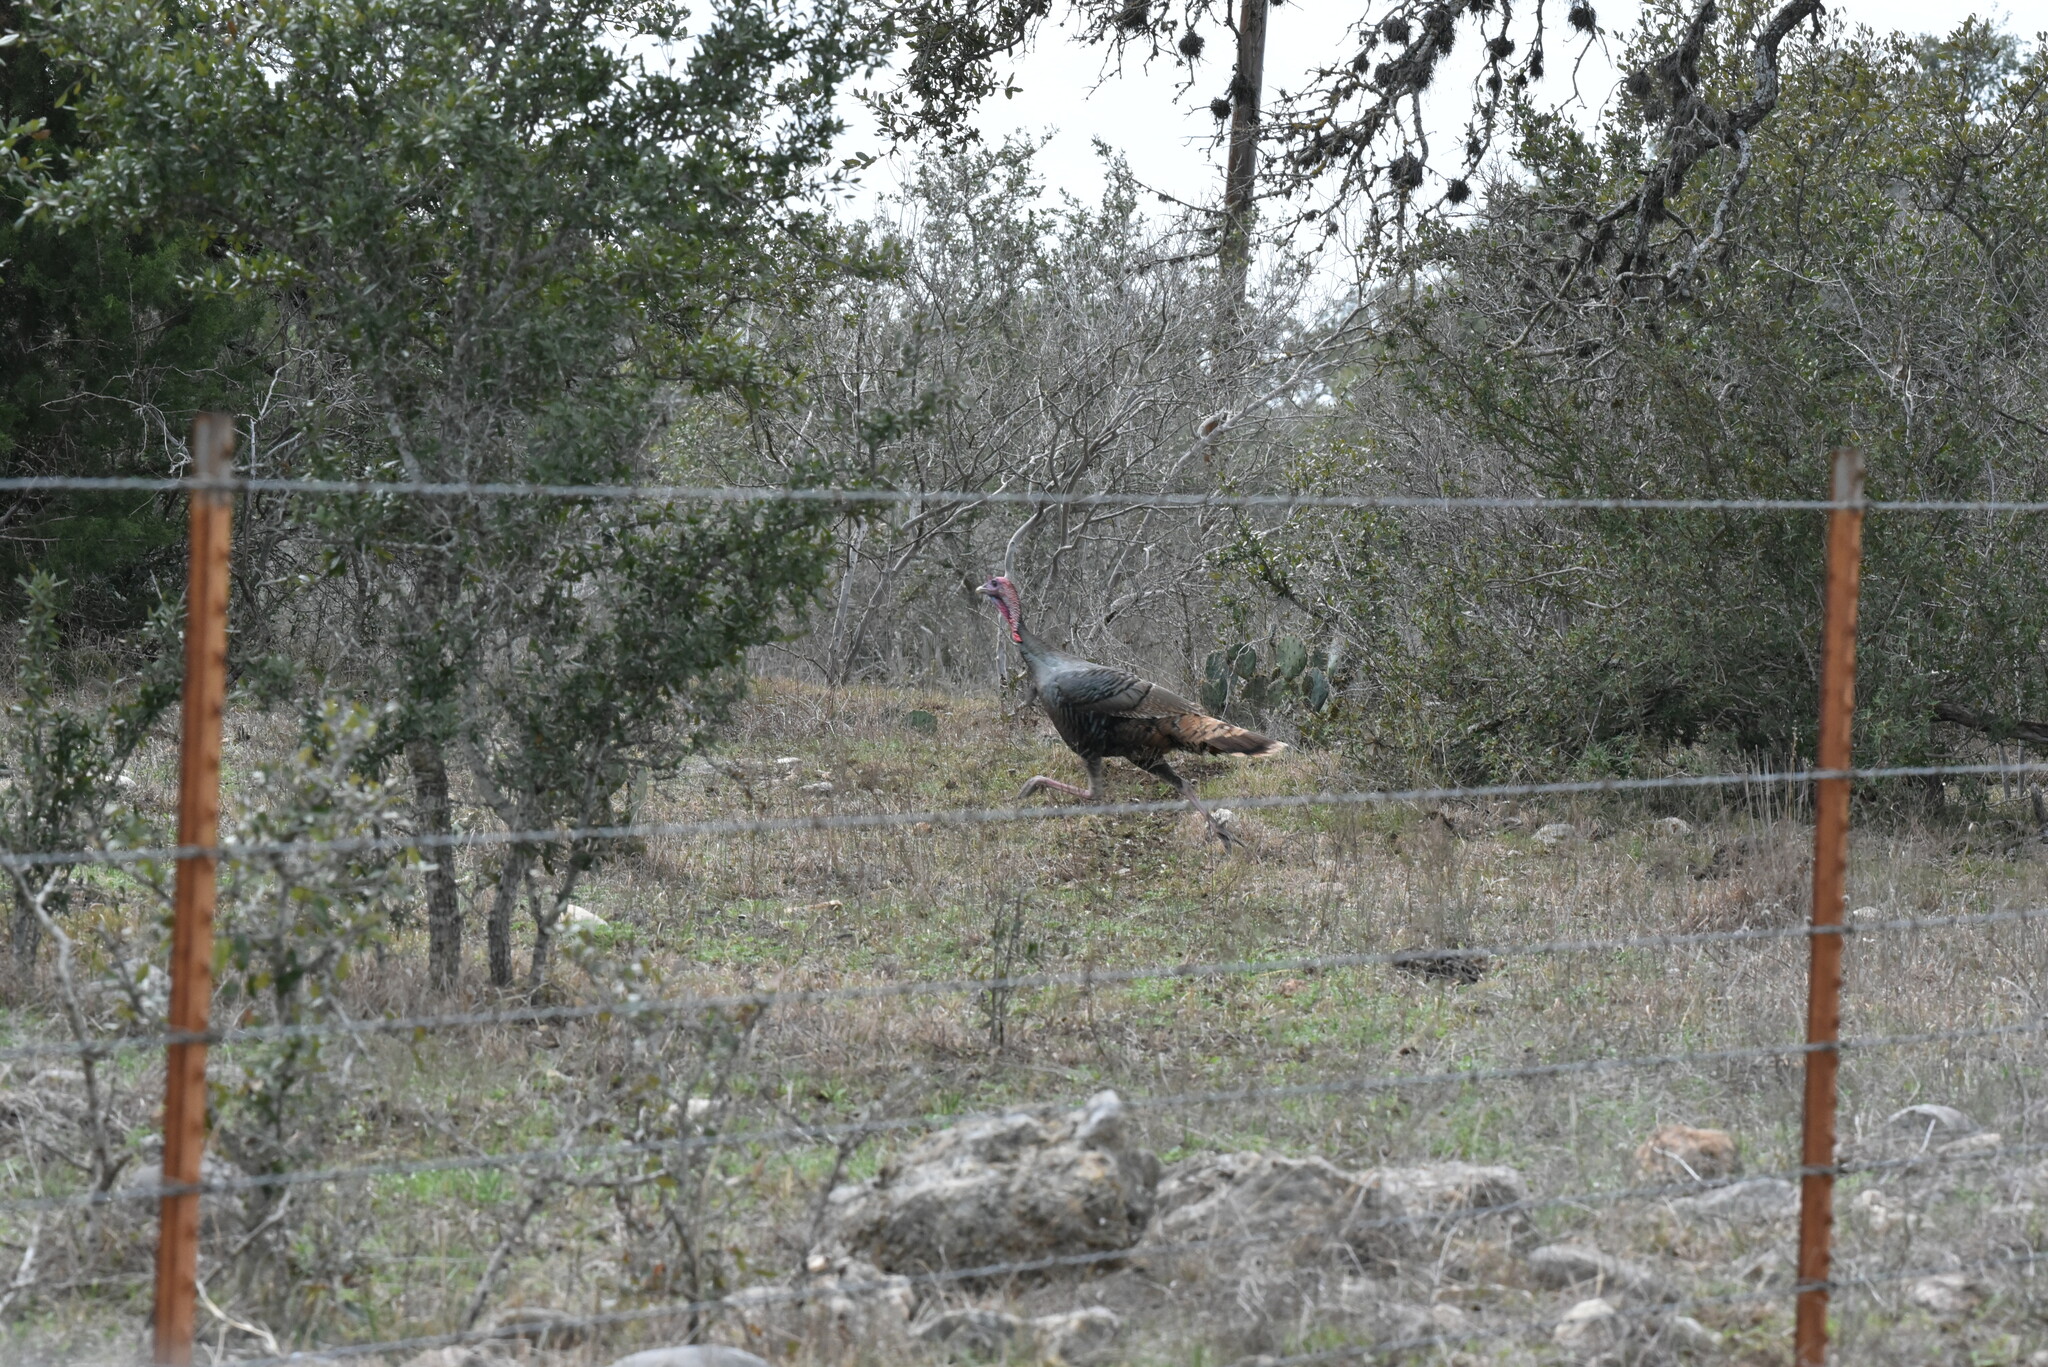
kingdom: Animalia
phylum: Chordata
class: Aves
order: Galliformes
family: Phasianidae
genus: Meleagris
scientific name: Meleagris gallopavo
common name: Wild turkey
